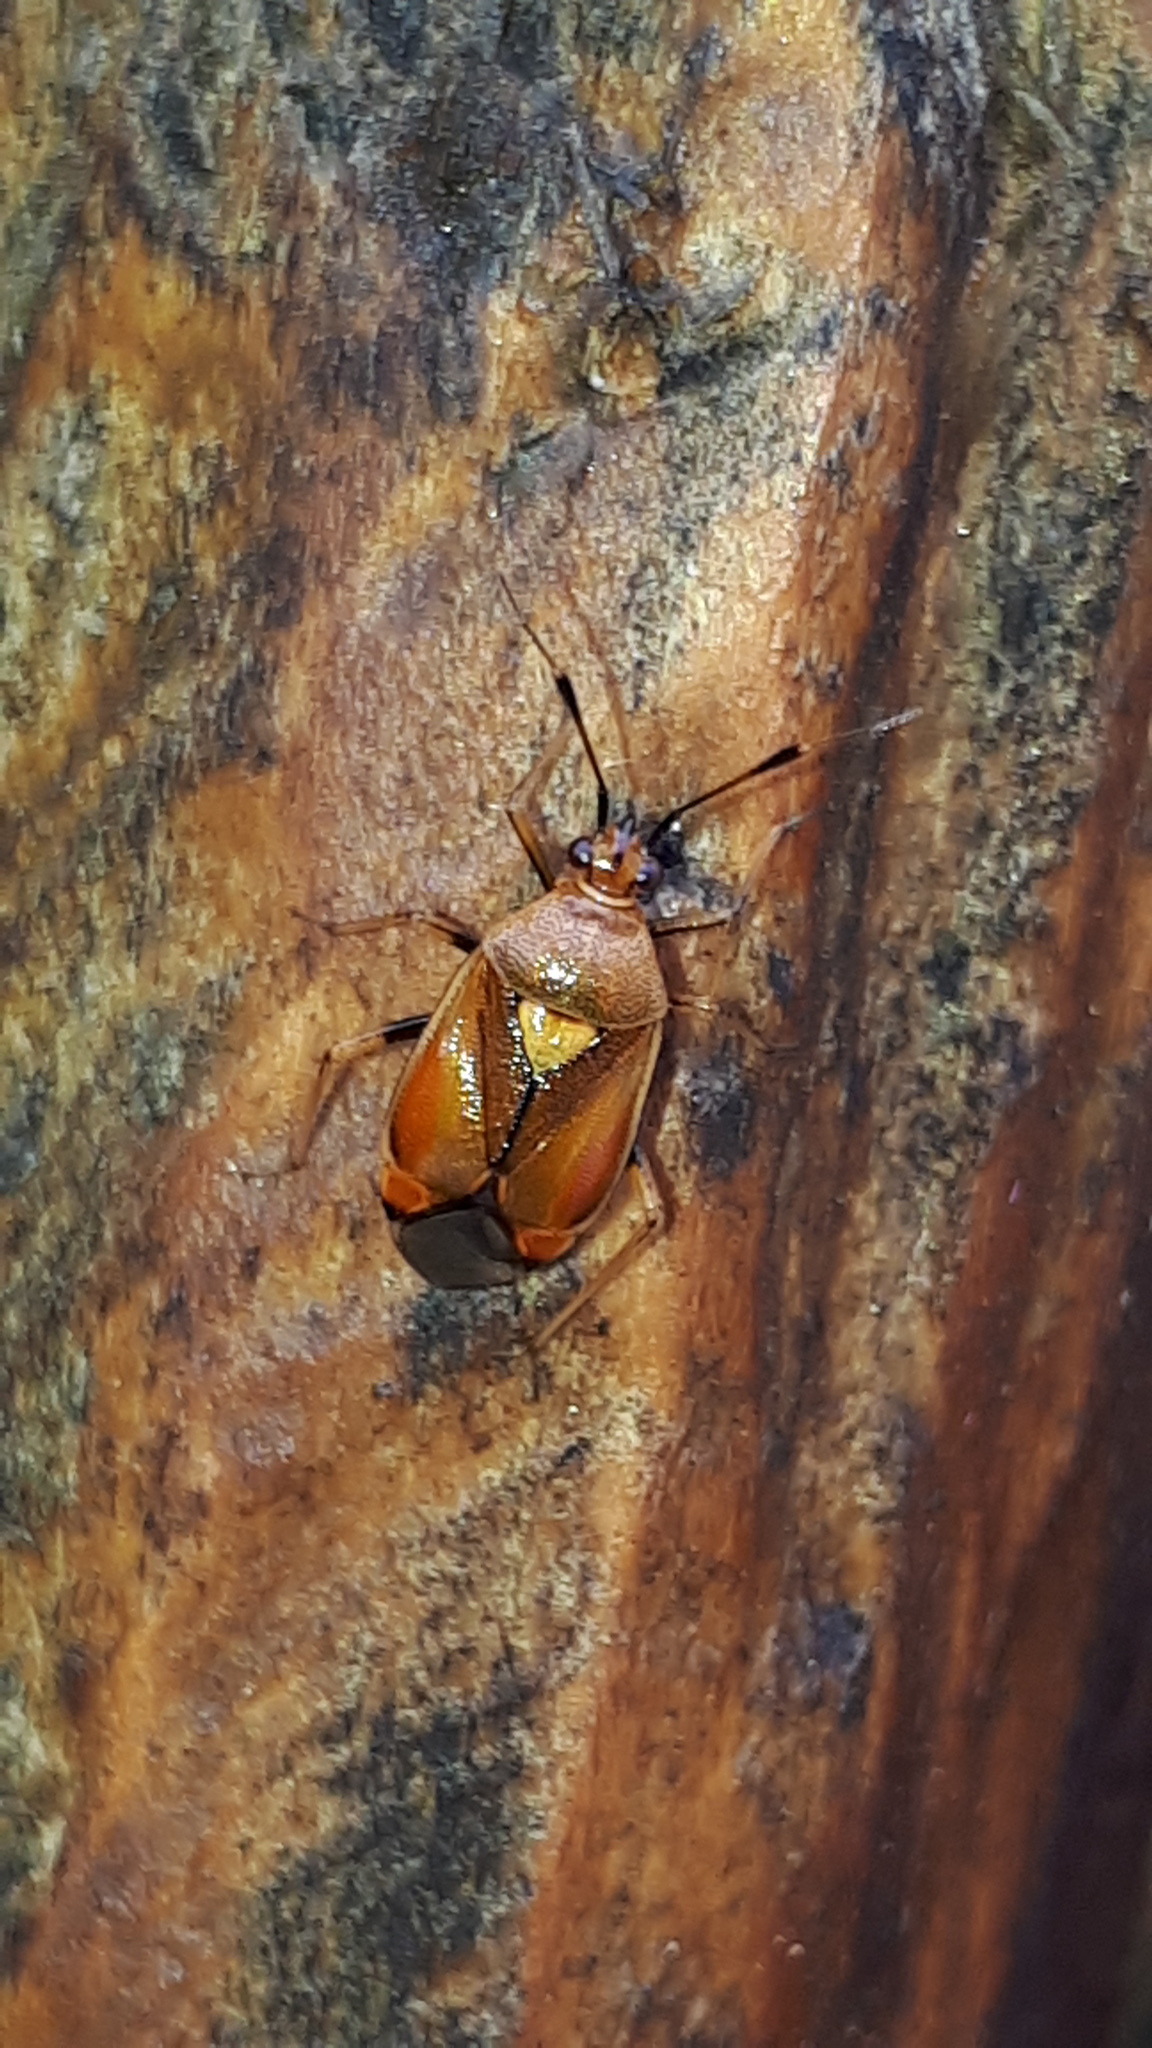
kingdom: Animalia
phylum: Arthropoda
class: Insecta
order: Hemiptera
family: Miridae
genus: Deraeocoris
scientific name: Deraeocoris ruber
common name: Plant bug
